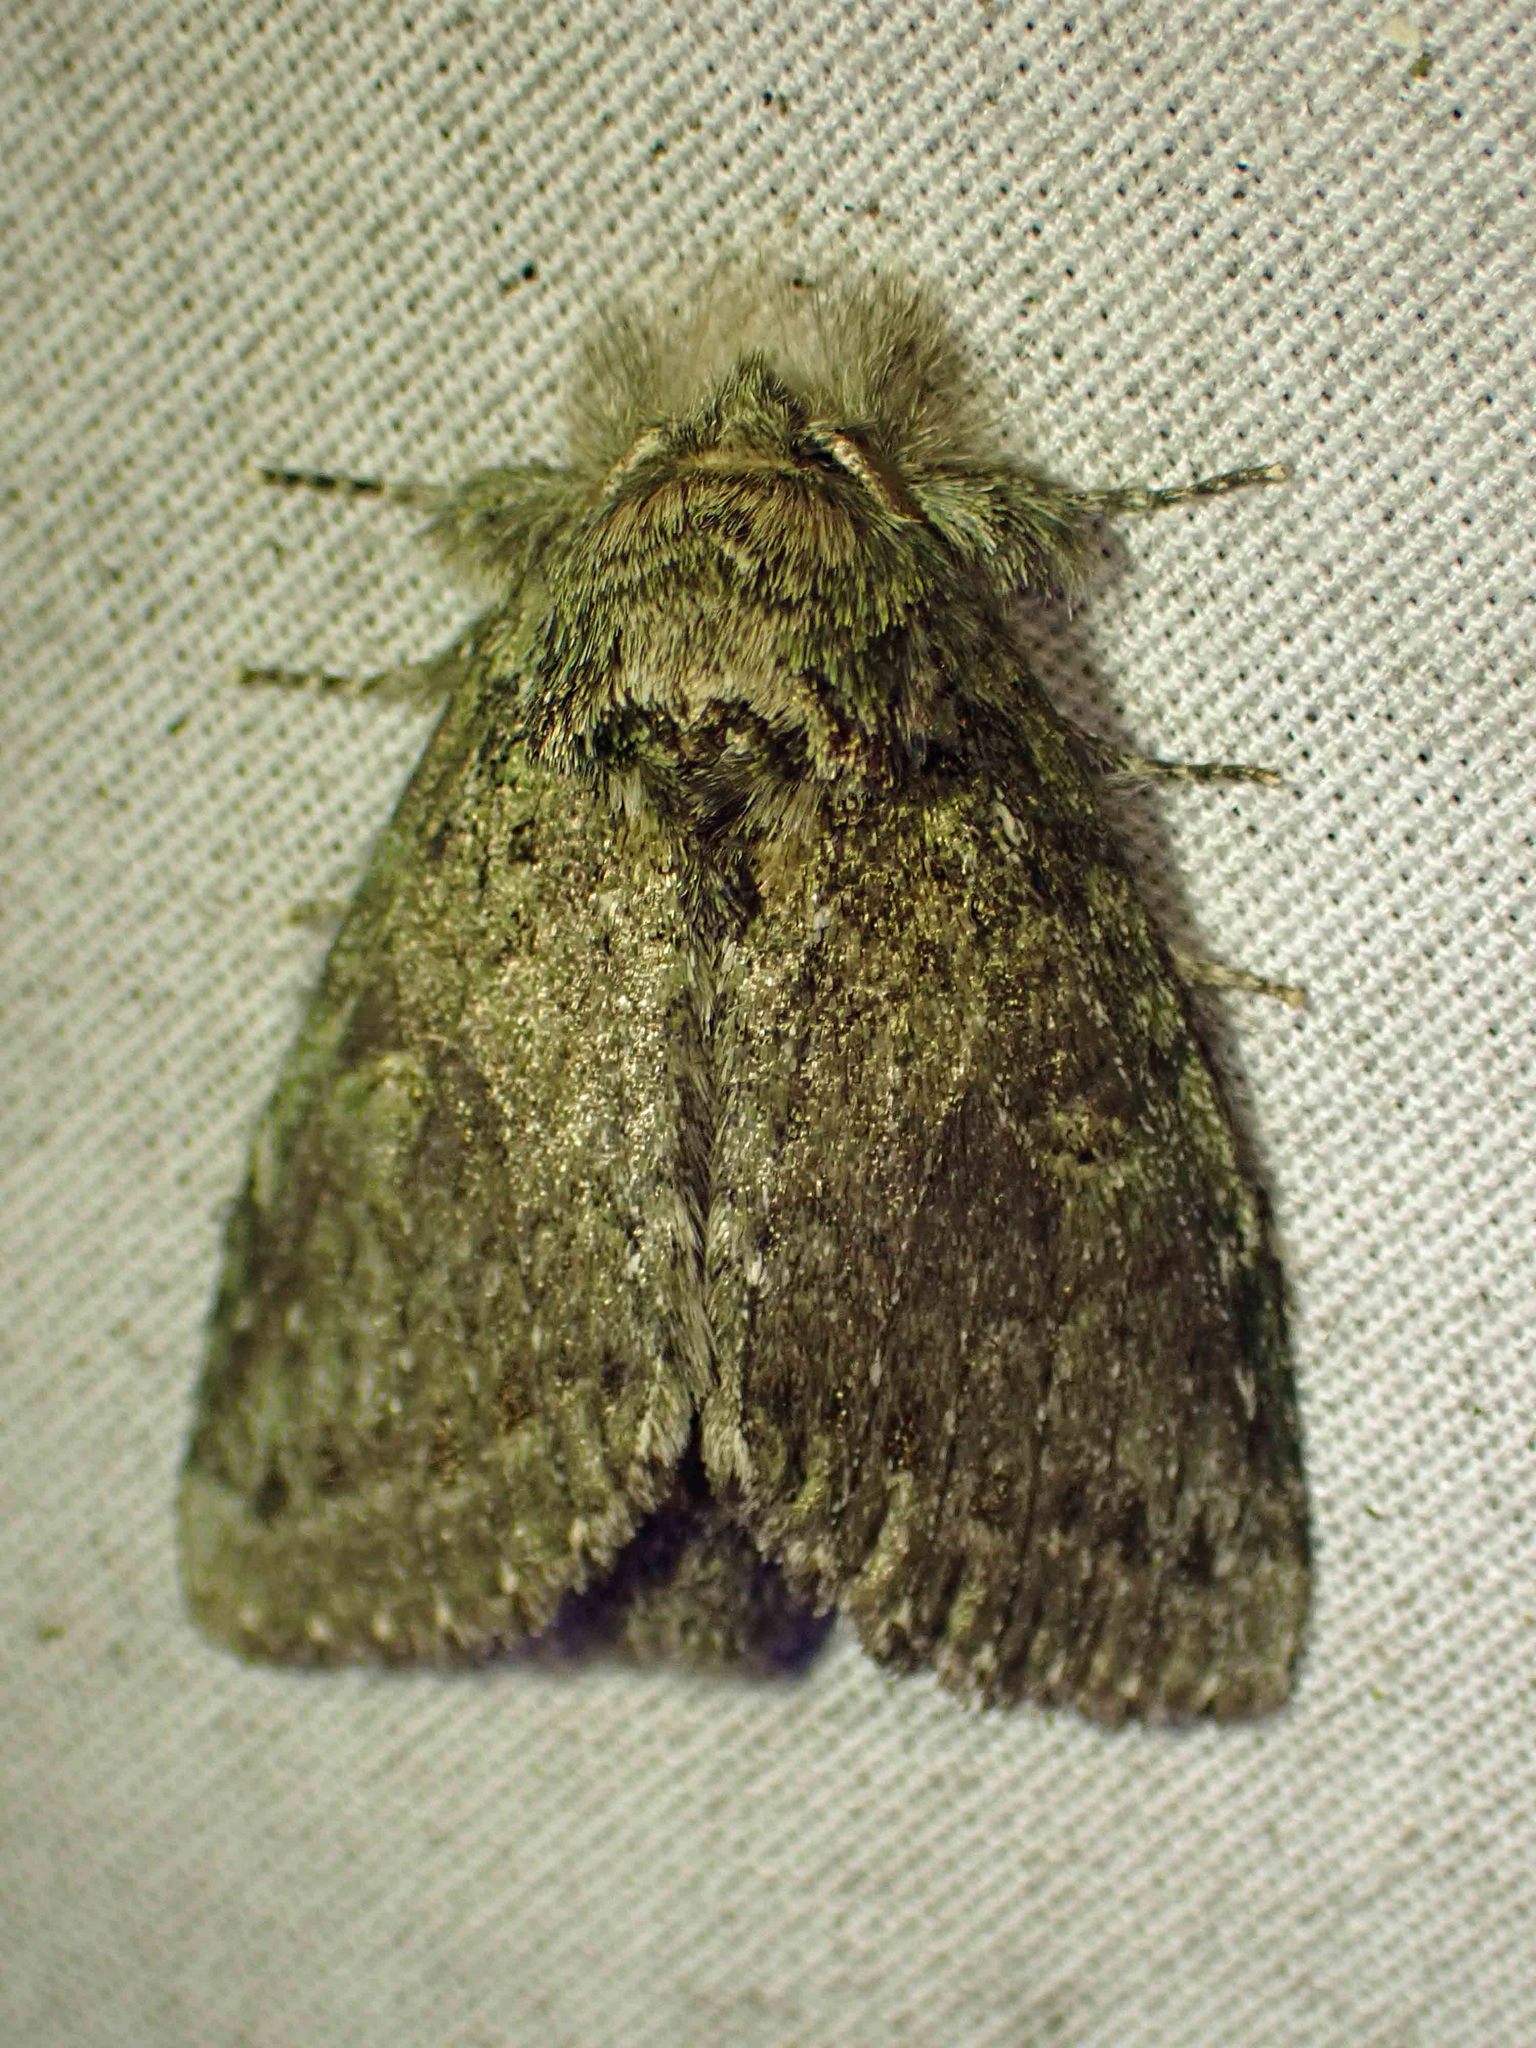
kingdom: Animalia
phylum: Arthropoda
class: Insecta
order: Lepidoptera
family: Notodontidae
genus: Disphragis
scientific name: Disphragis Cecrita guttivitta
